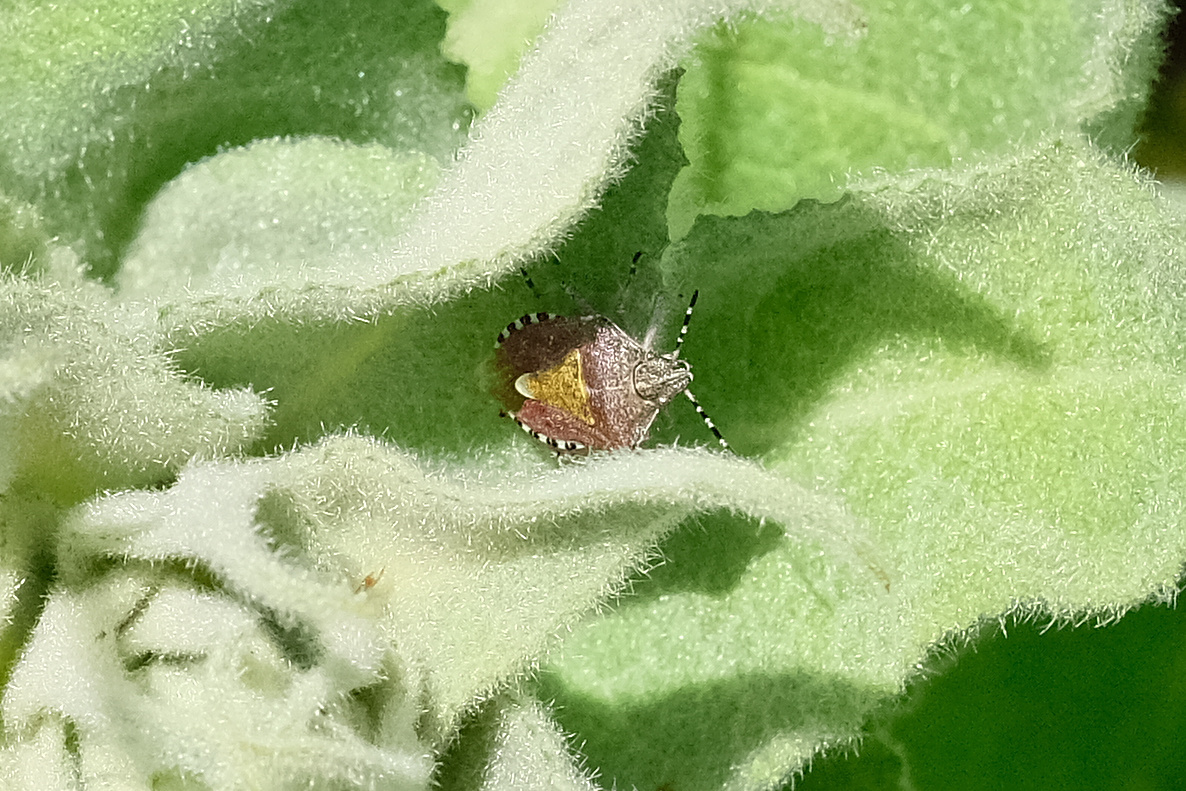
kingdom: Animalia
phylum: Arthropoda
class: Insecta
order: Hemiptera
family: Pentatomidae
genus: Dolycoris
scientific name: Dolycoris baccarum
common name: Sloe bug
